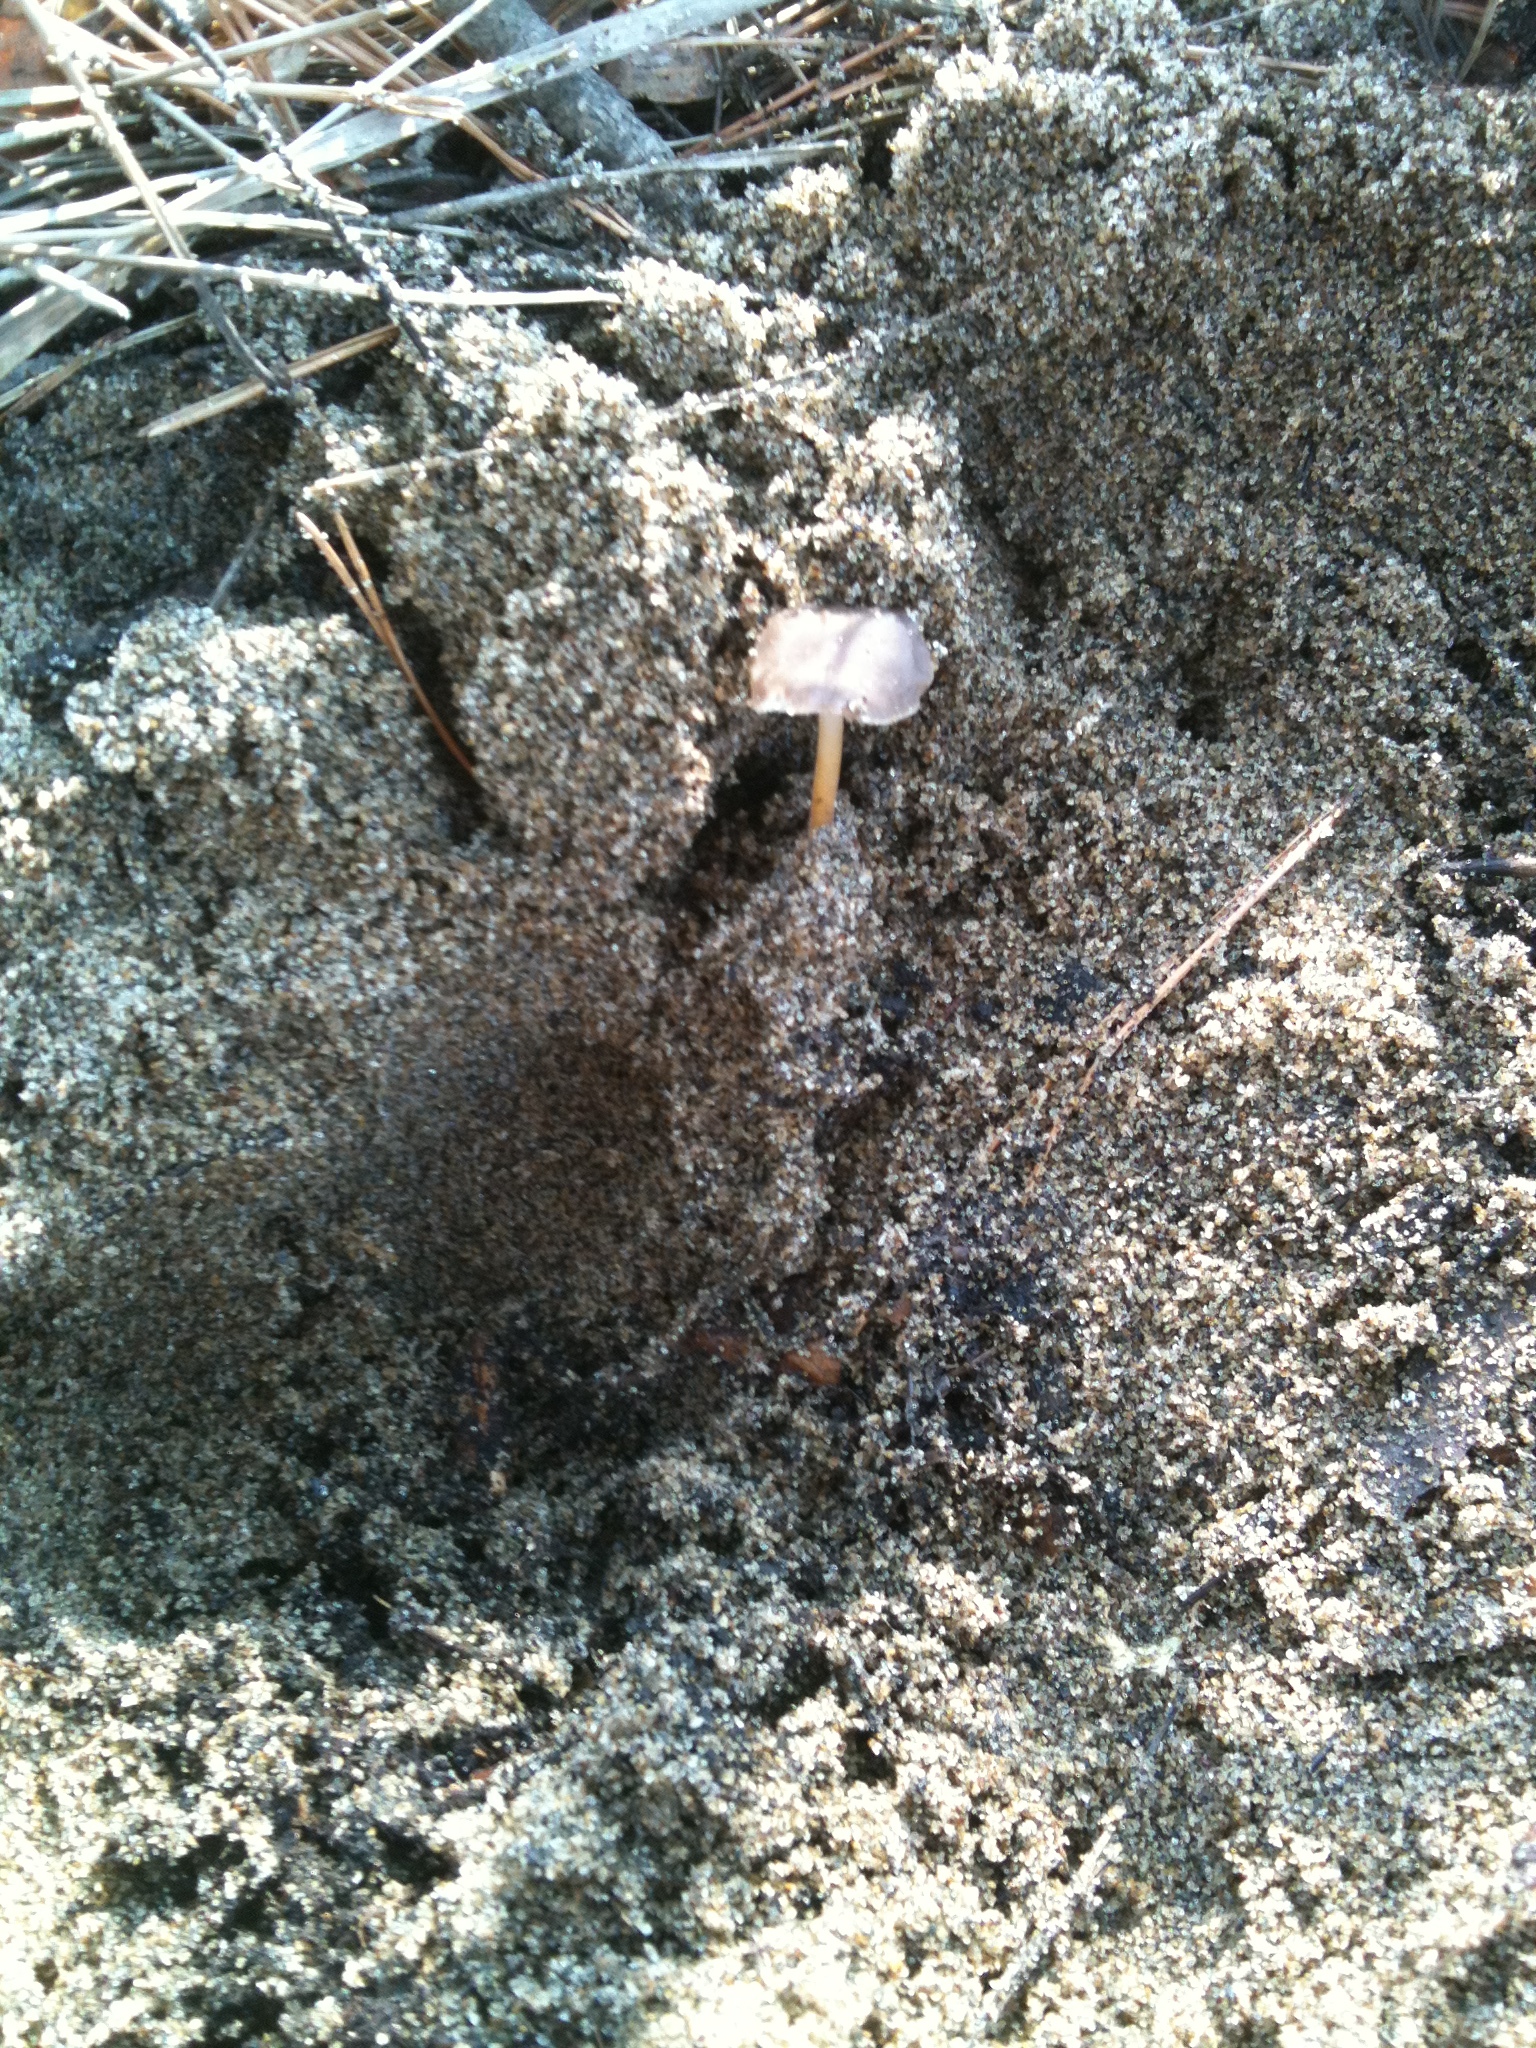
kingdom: Fungi
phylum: Basidiomycota
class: Agaricomycetes
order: Agaricales
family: Physalacriaceae
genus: Strobilurus
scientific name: Strobilurus stephanocystis
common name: Russian conecap
